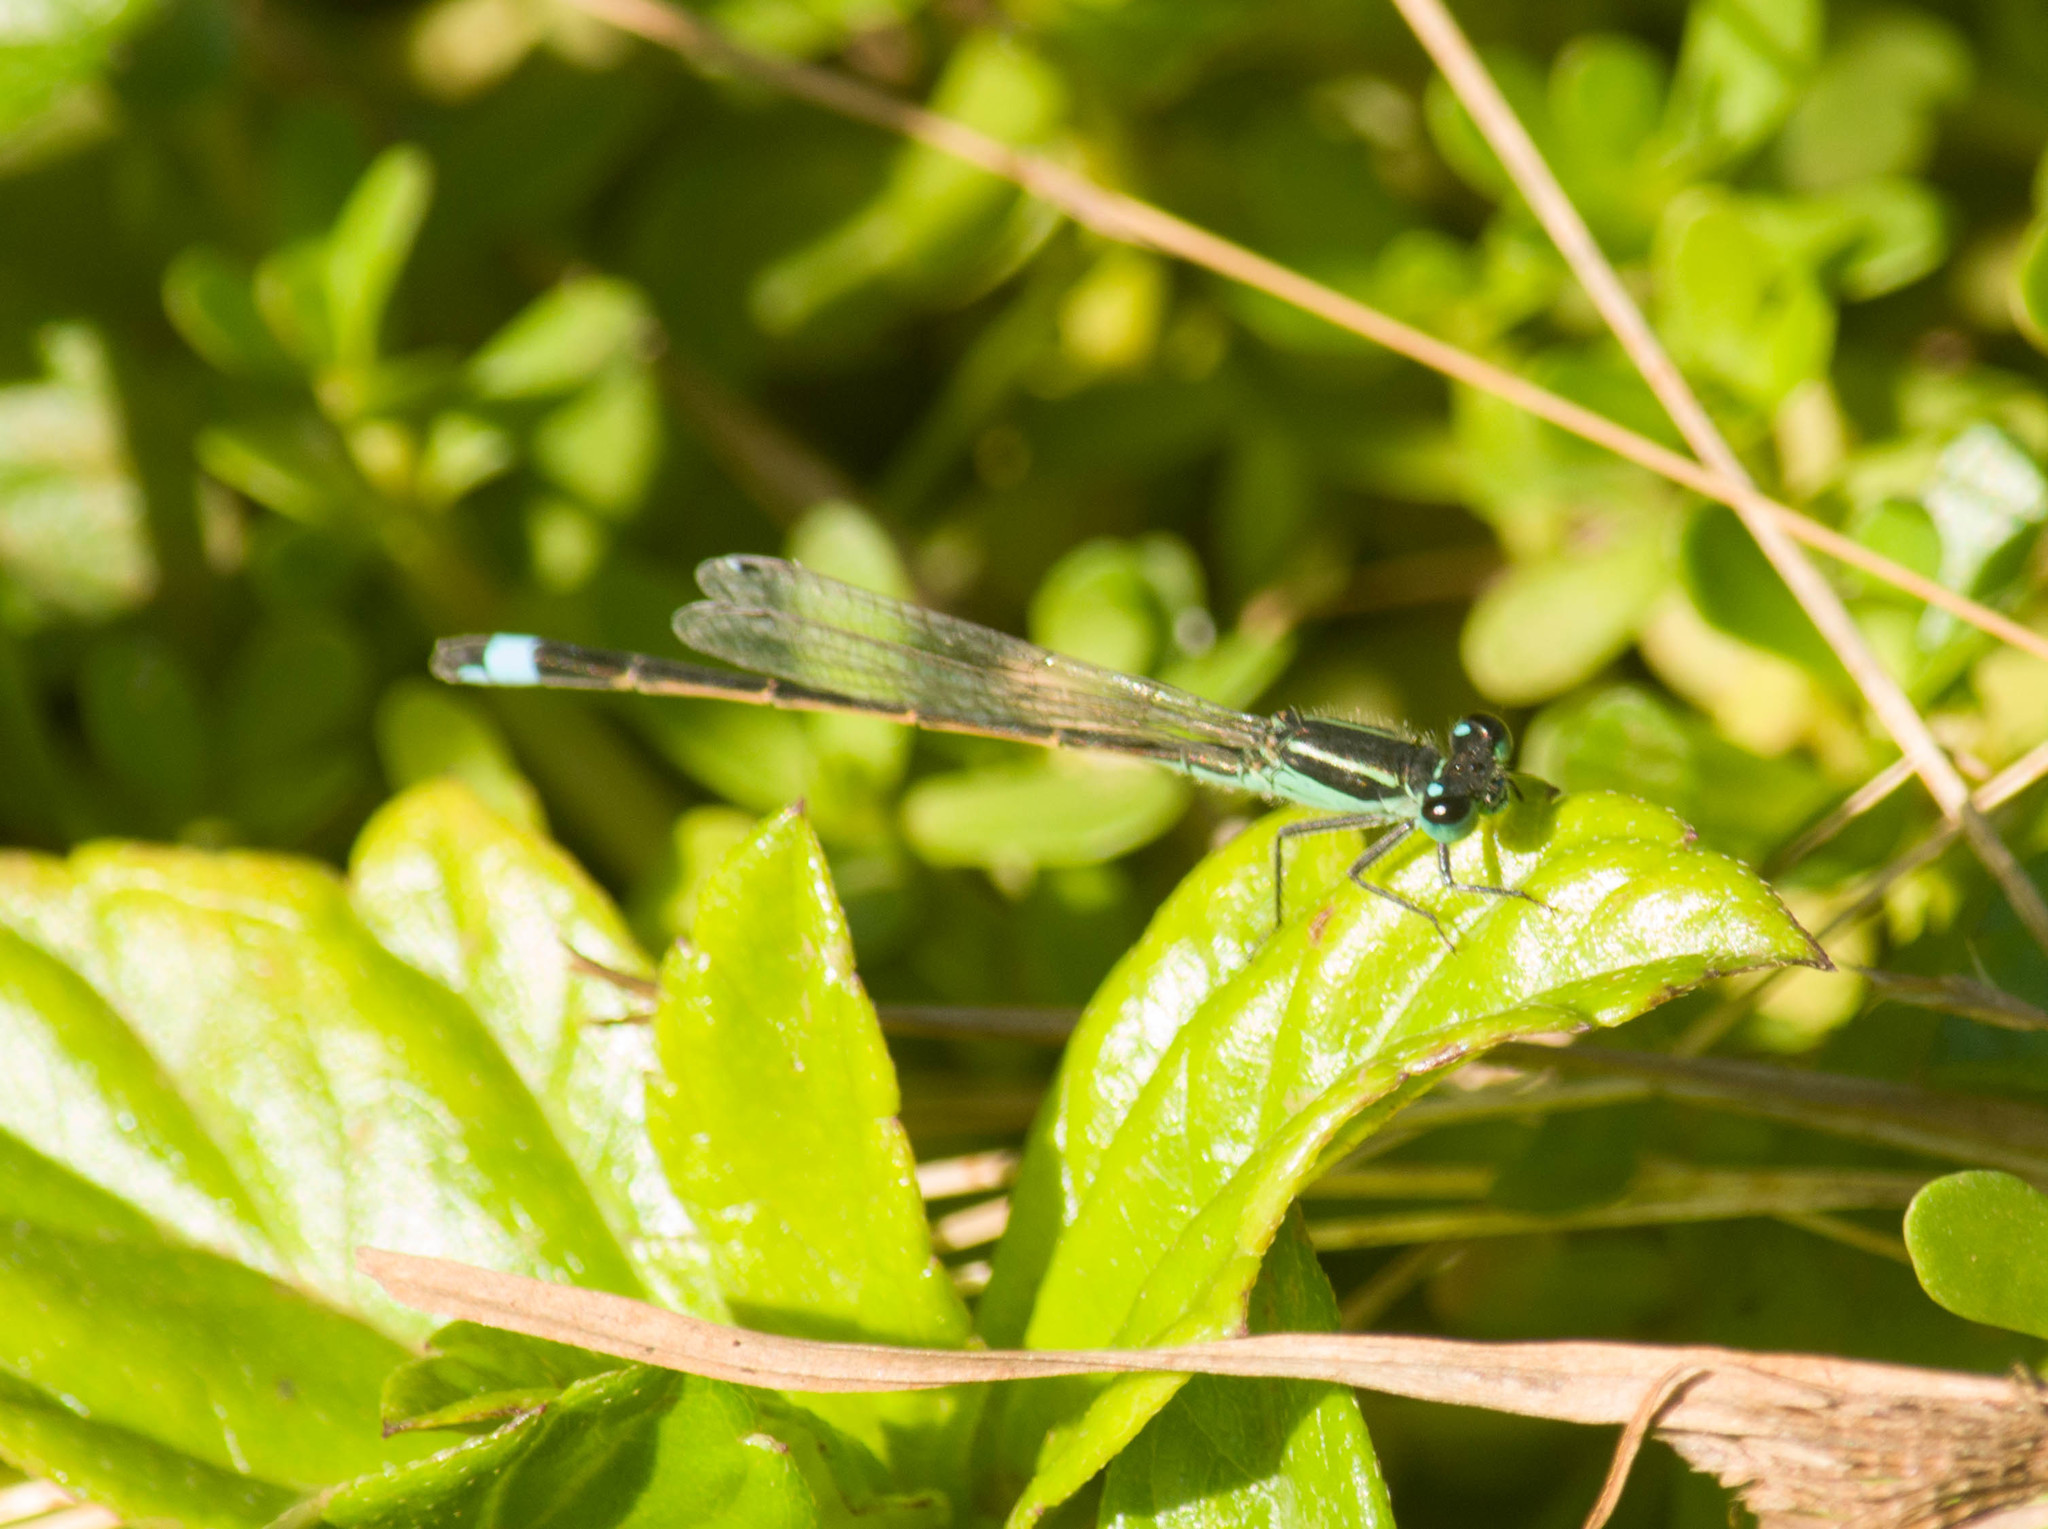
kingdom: Animalia
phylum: Arthropoda
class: Insecta
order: Odonata
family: Coenagrionidae
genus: Ischnura
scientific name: Ischnura ramburii
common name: Rambur's forktail
